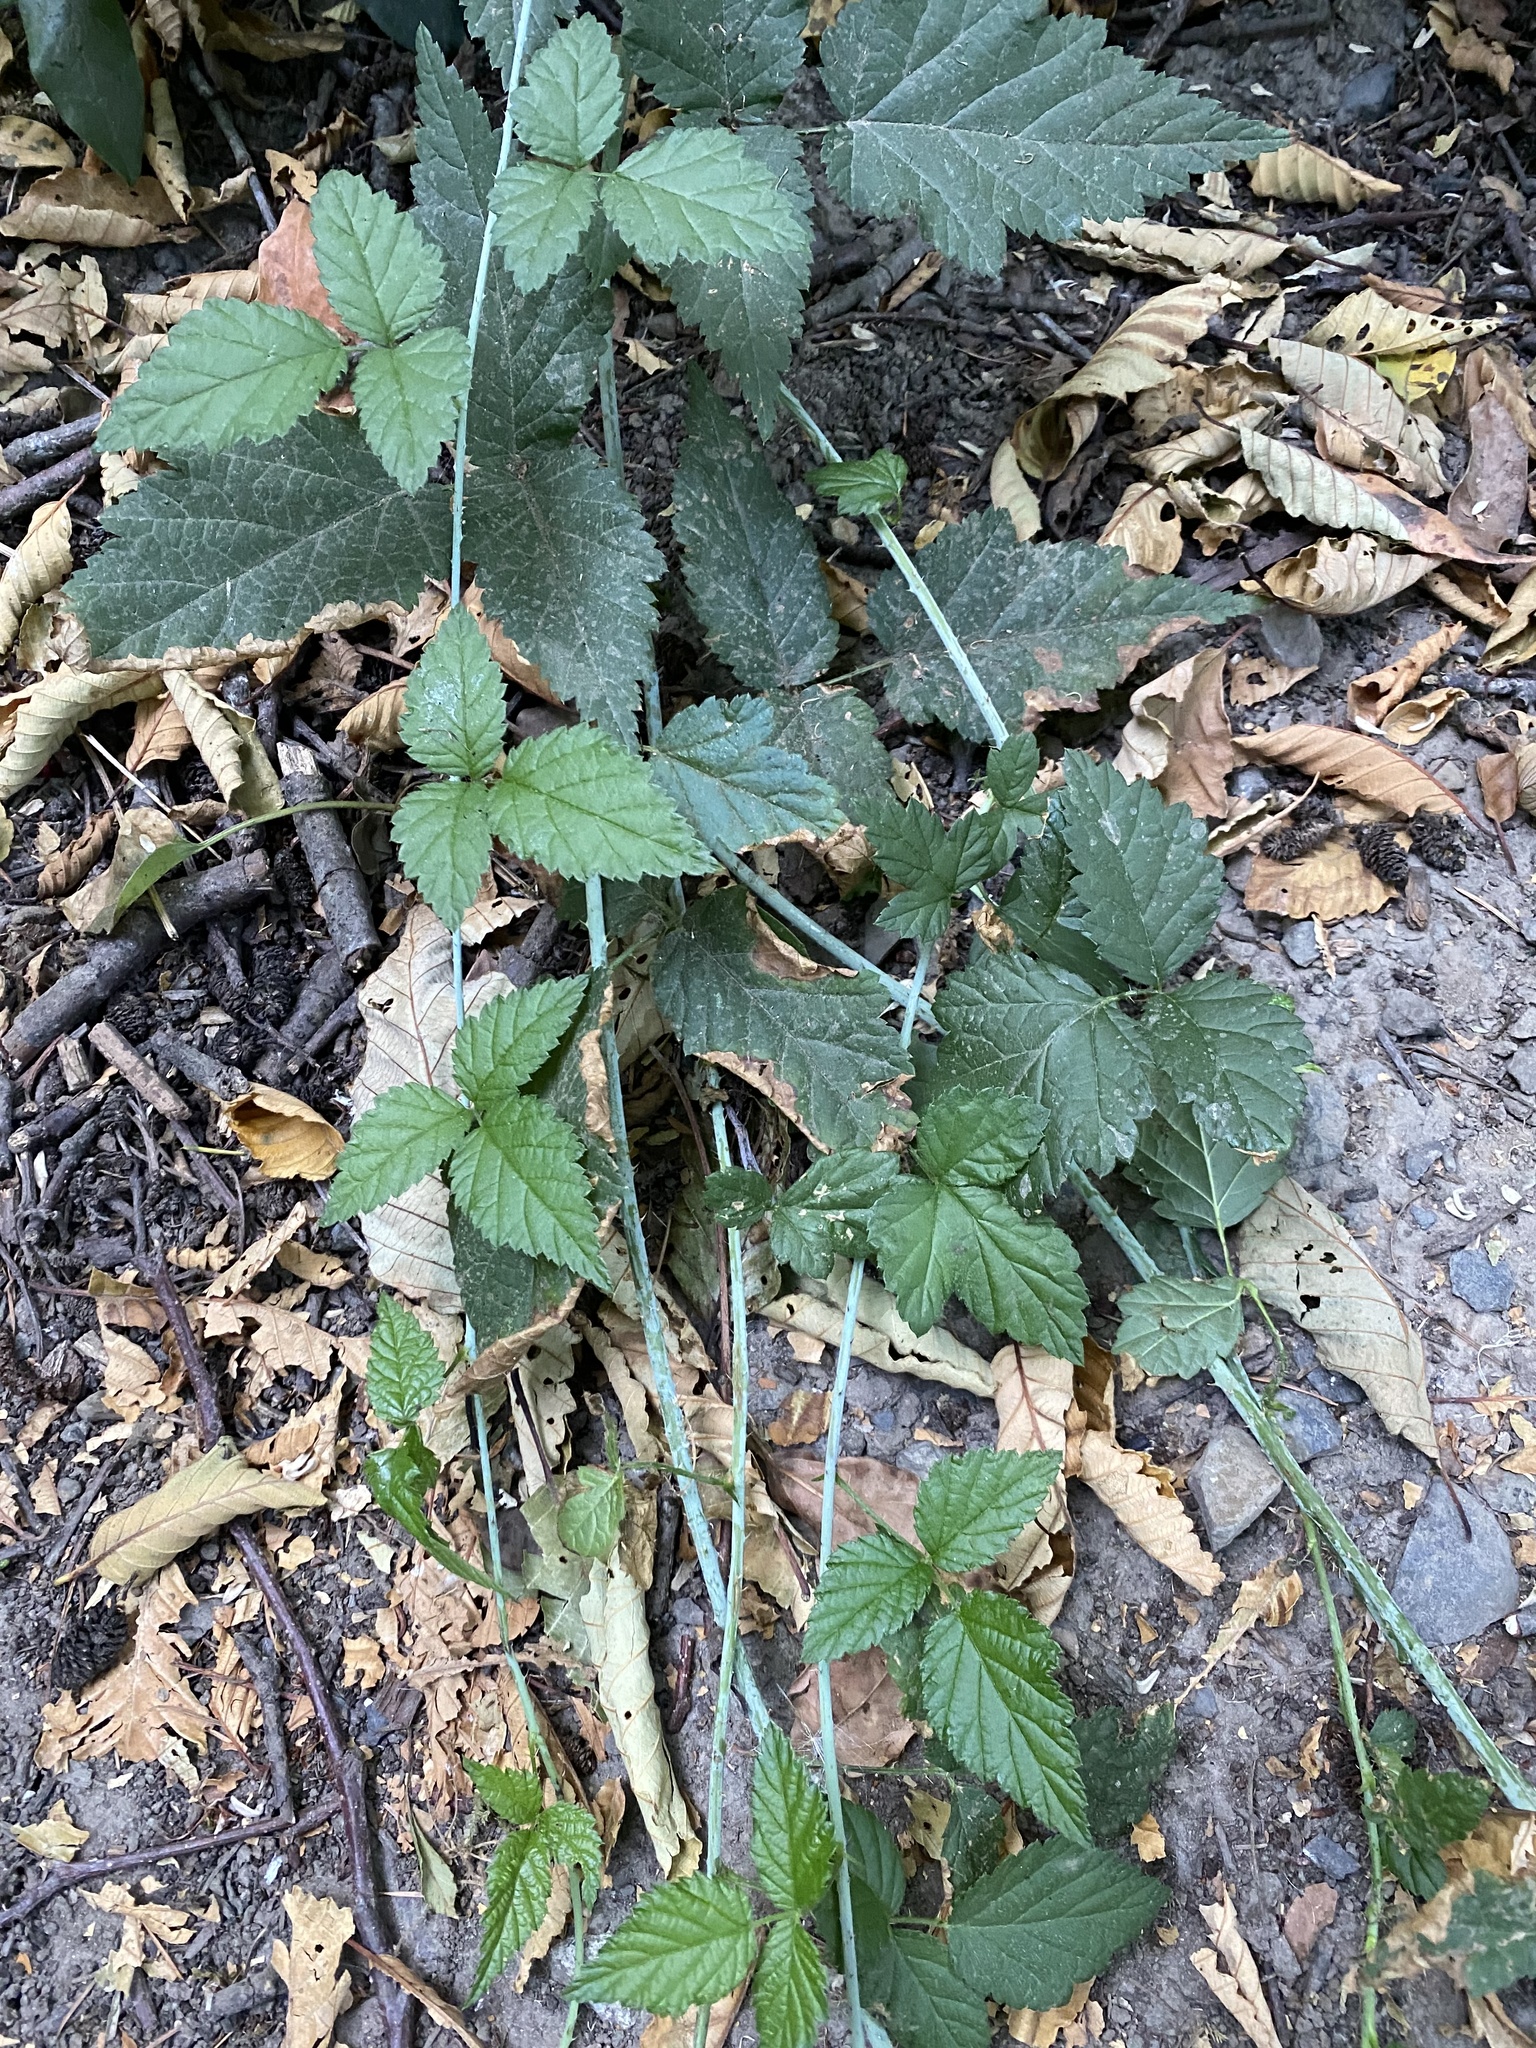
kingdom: Plantae
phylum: Tracheophyta
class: Magnoliopsida
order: Rosales
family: Rosaceae
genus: Rubus
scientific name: Rubus ursinus
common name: Pacific blackberry
